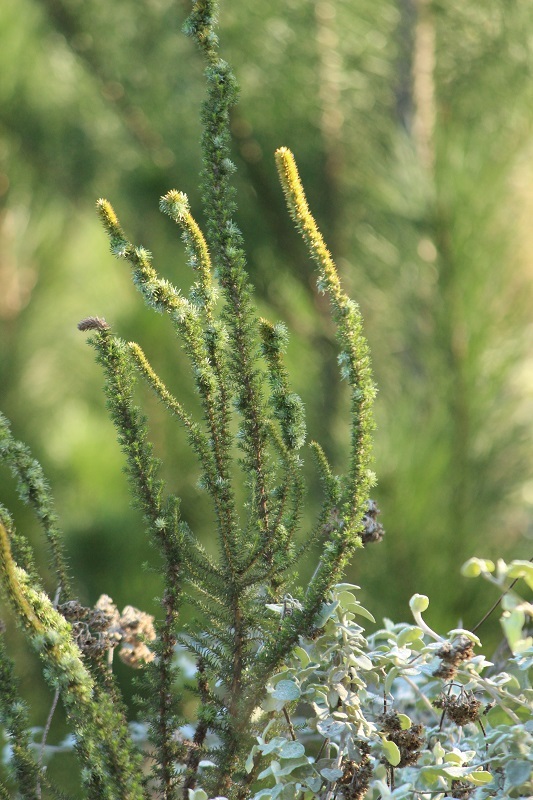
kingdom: Plantae
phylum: Tracheophyta
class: Magnoliopsida
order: Asterales
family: Asteraceae
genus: Stoebe
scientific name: Stoebe alopecuroides
